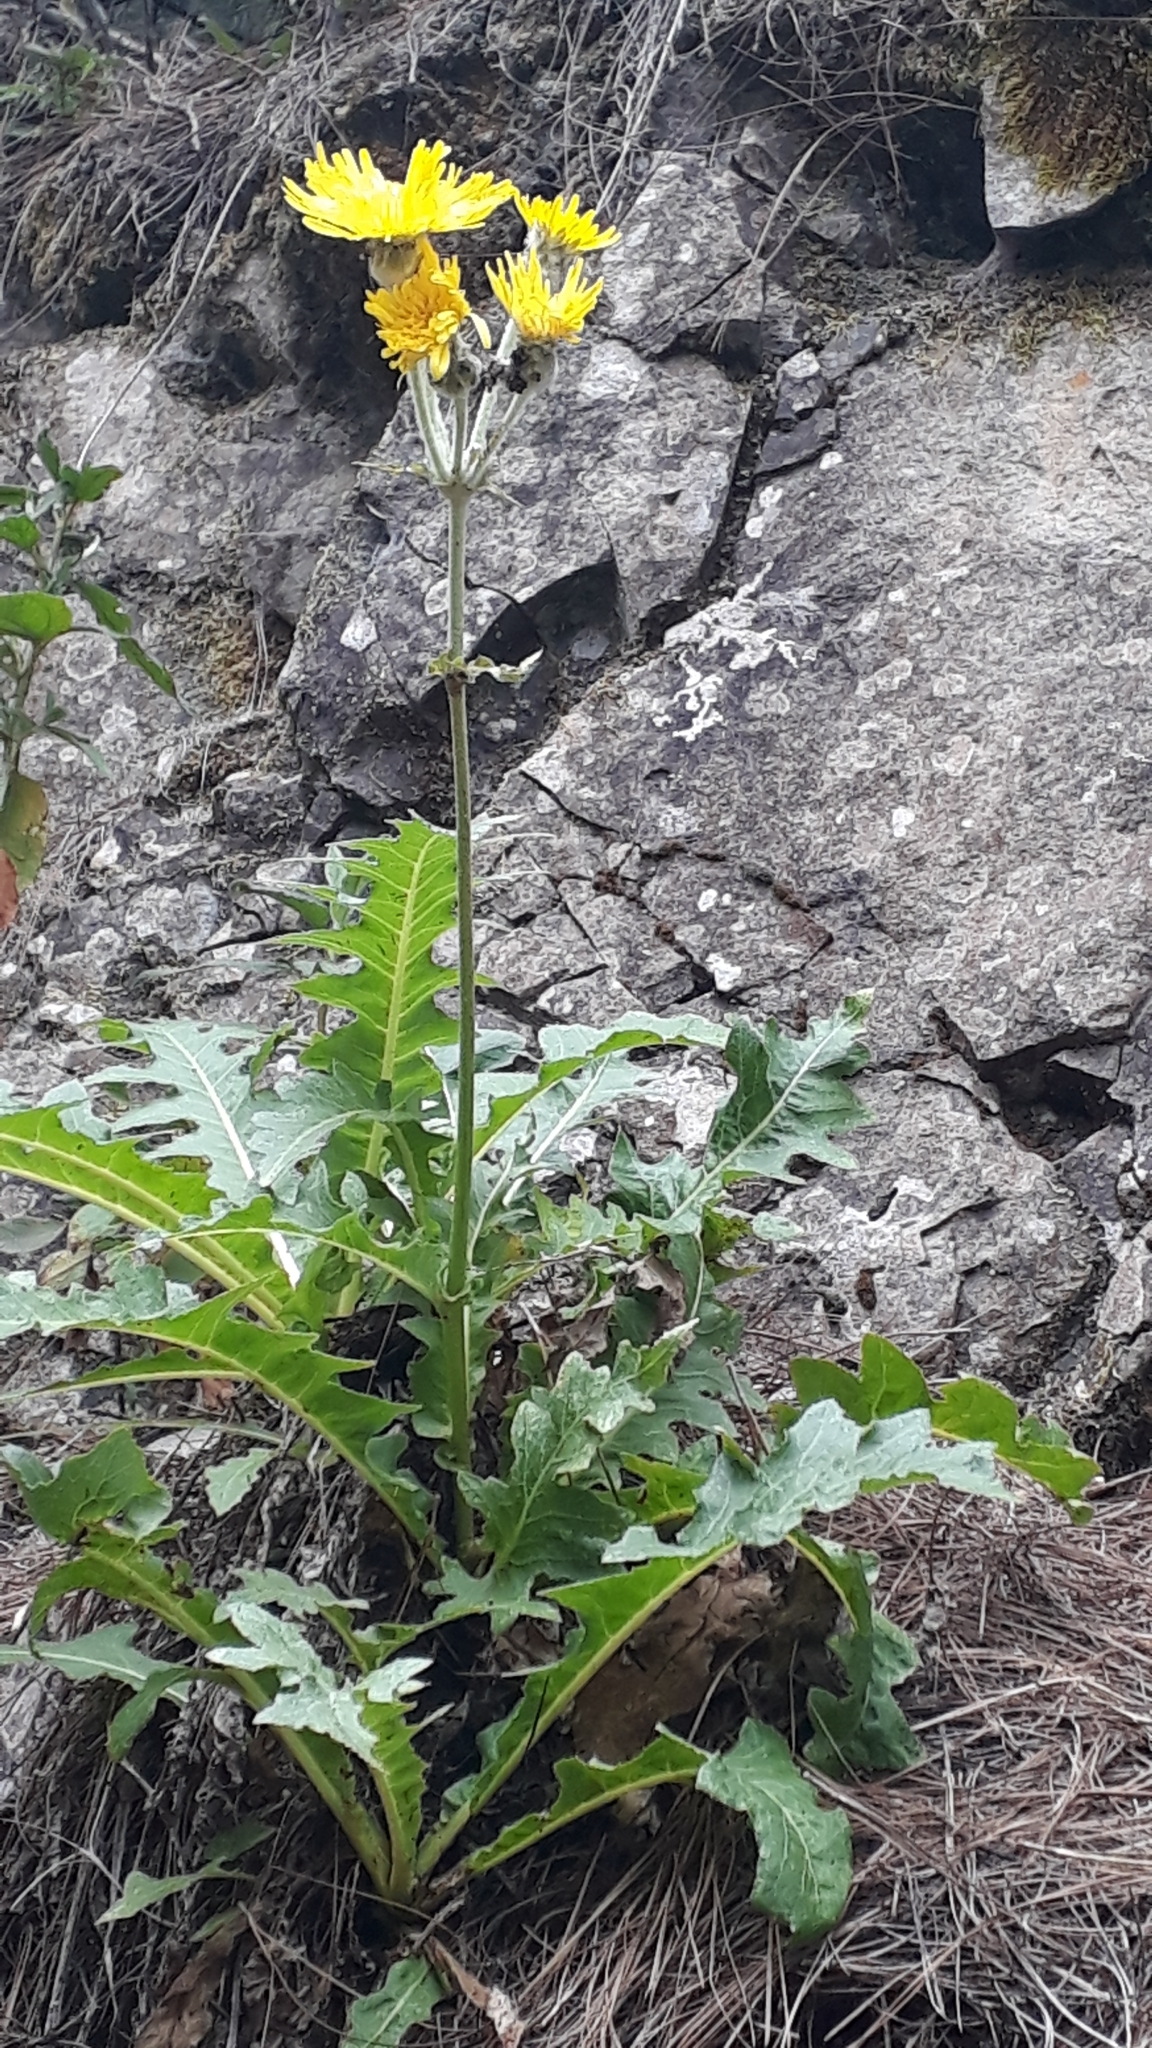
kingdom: Plantae
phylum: Tracheophyta
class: Magnoliopsida
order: Asterales
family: Asteraceae
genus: Sonchus
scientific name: Sonchus acaulis
